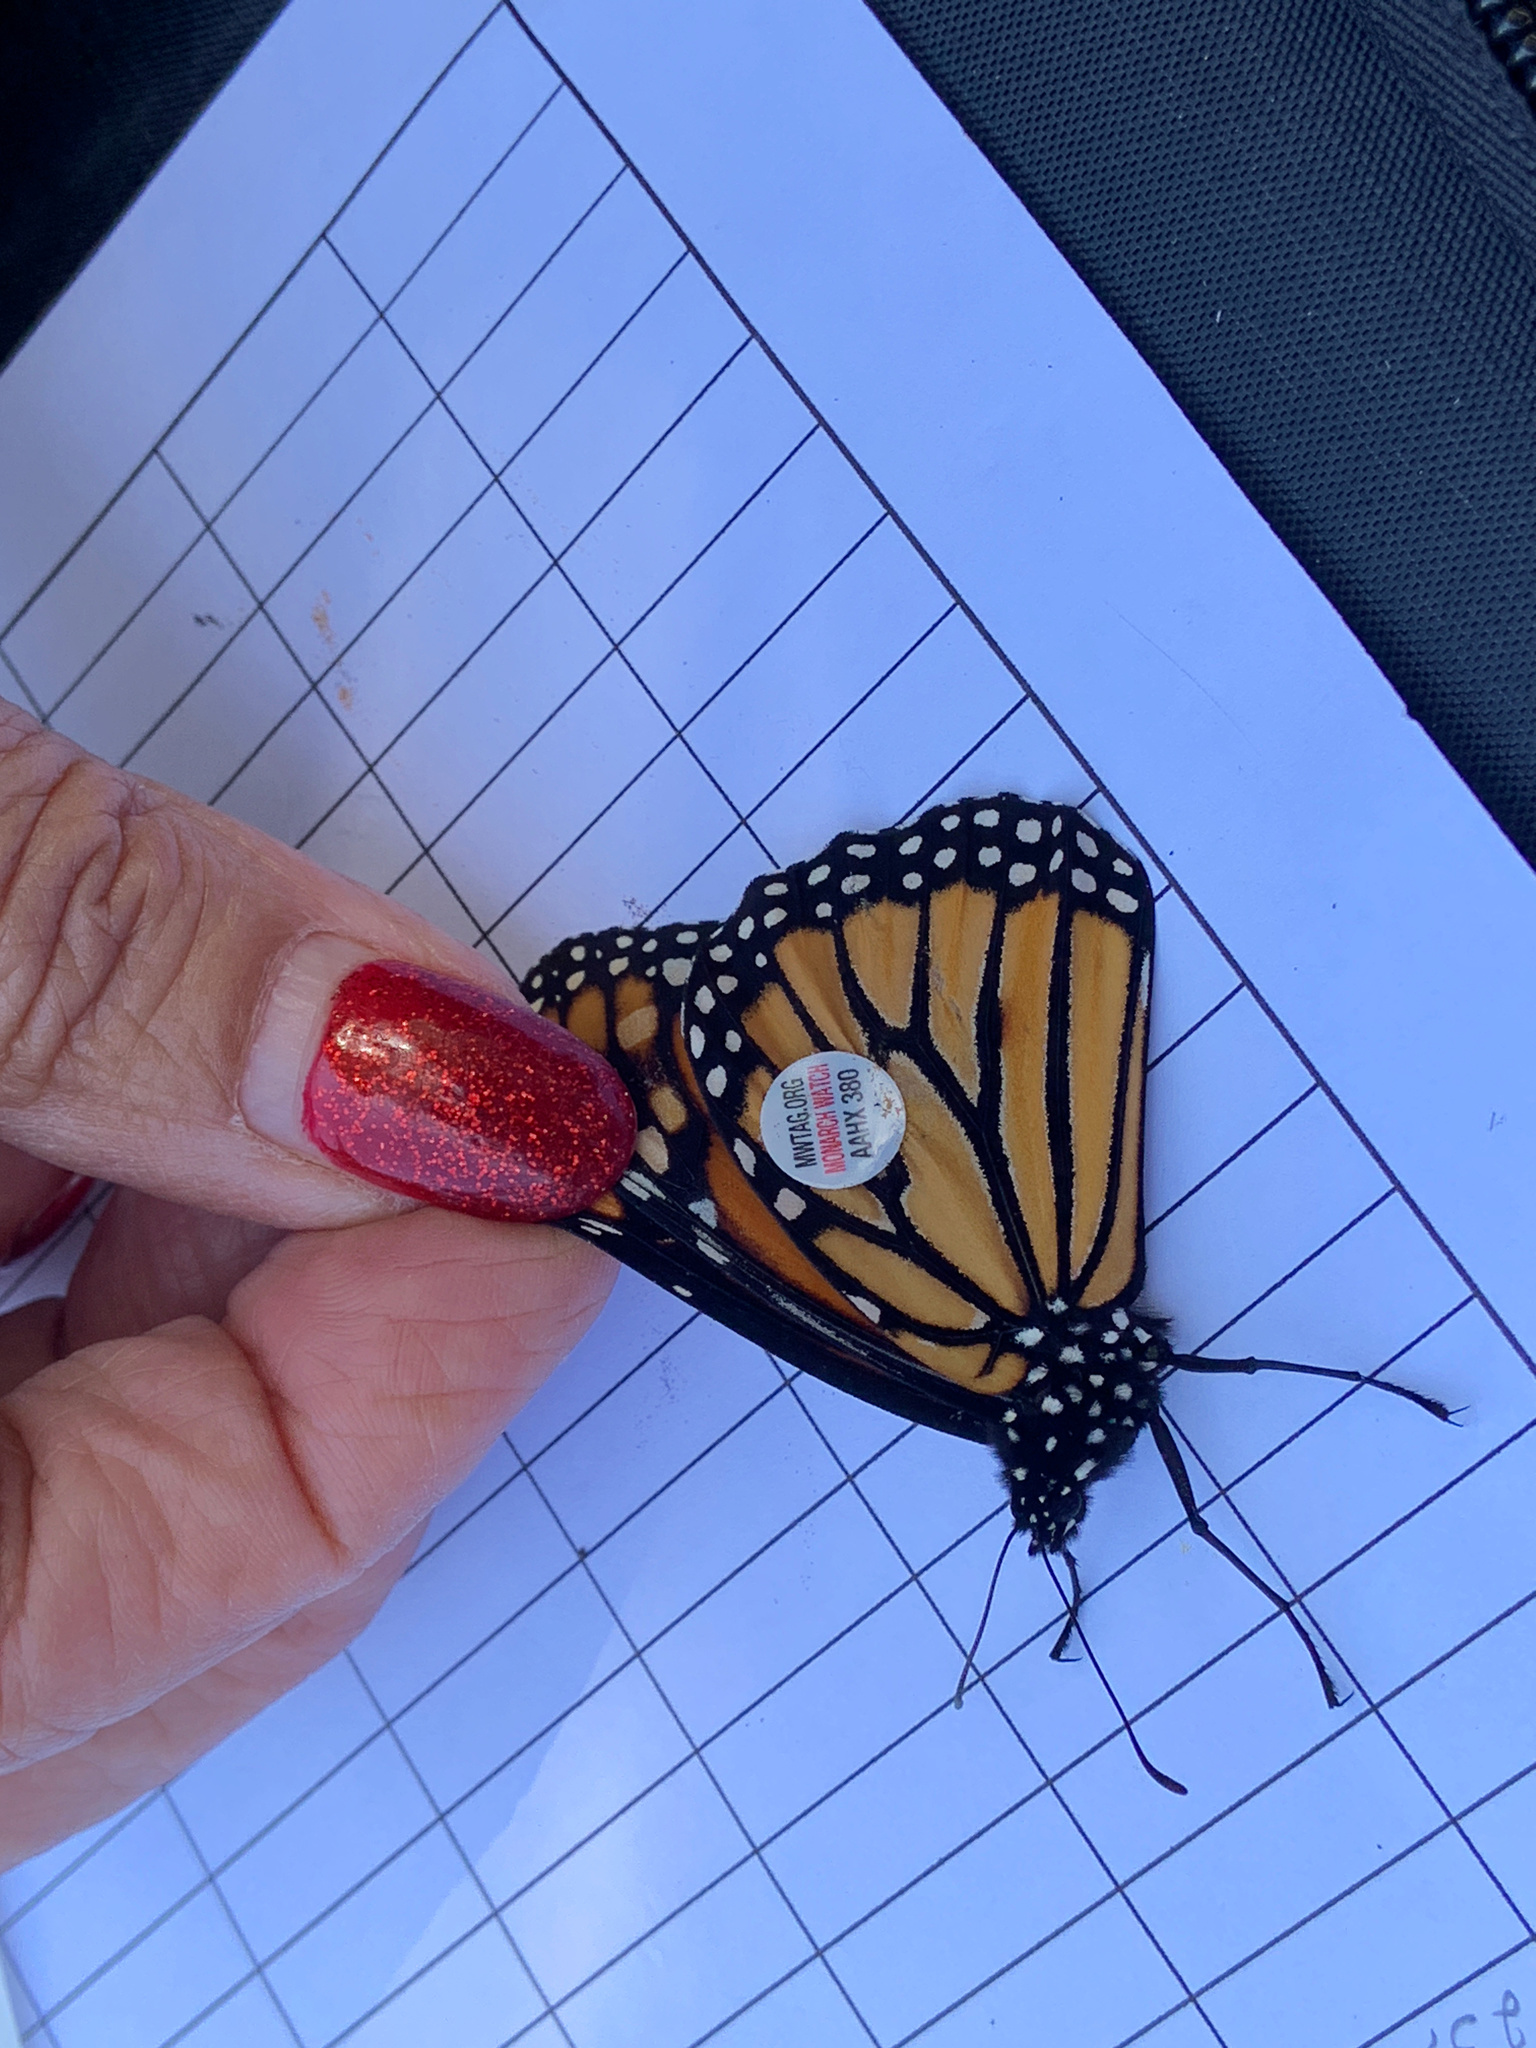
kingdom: Animalia
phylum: Arthropoda
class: Insecta
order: Lepidoptera
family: Nymphalidae
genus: Danaus
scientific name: Danaus plexippus
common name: Monarch
